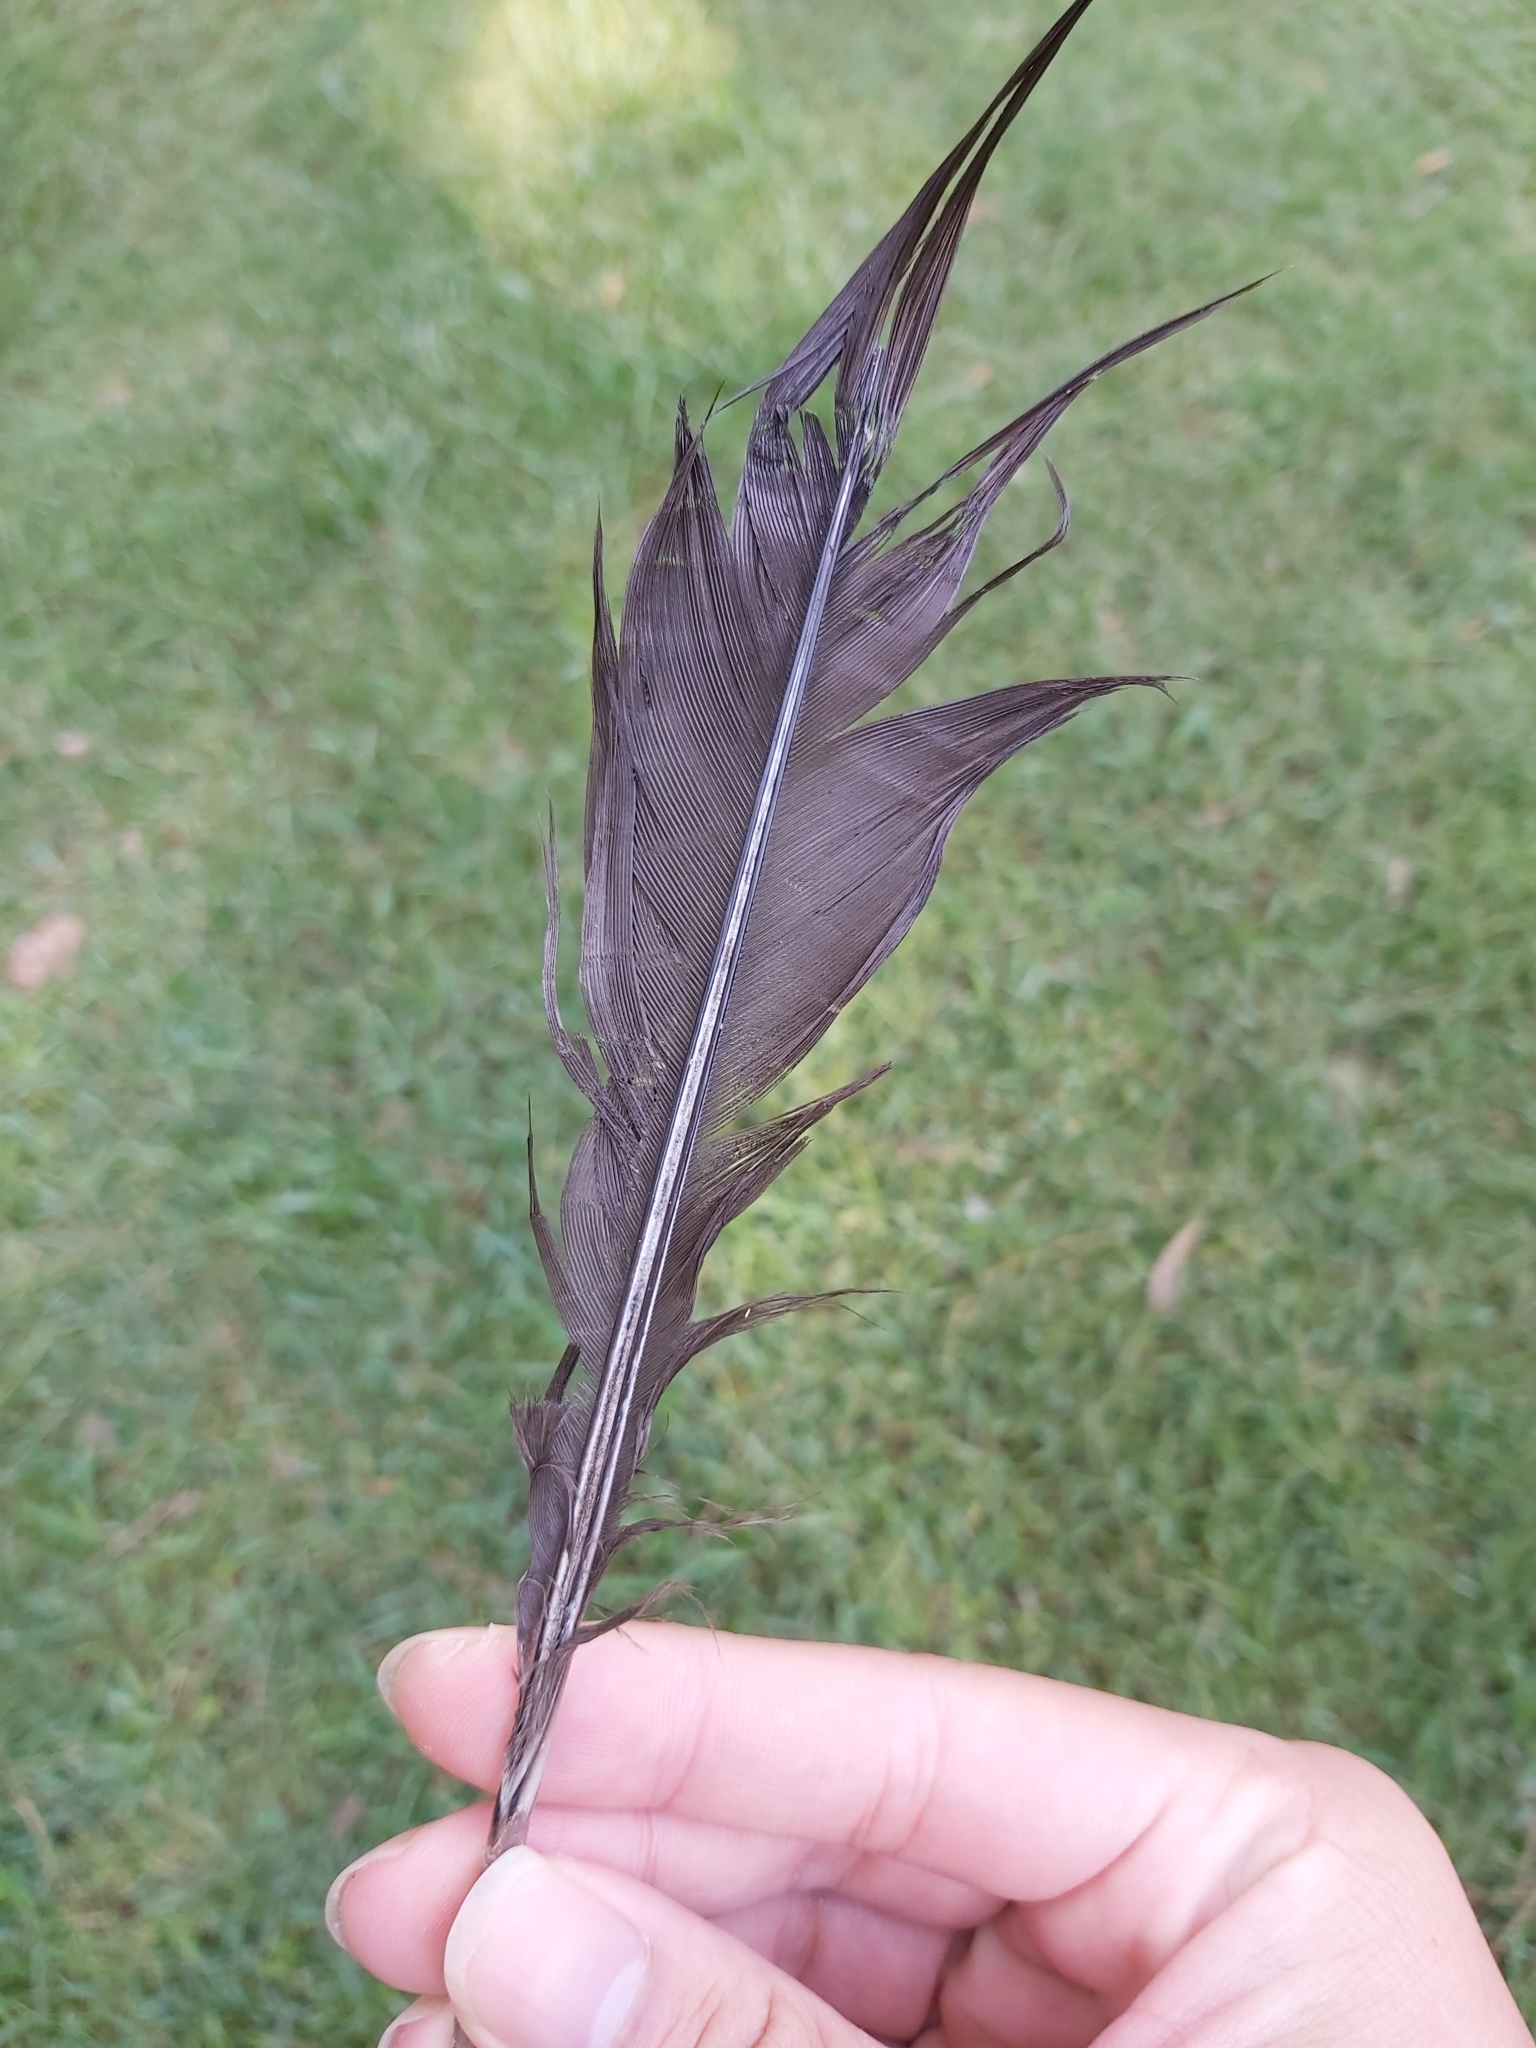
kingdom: Animalia
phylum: Chordata
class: Aves
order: Galliformes
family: Megapodiidae
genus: Alectura
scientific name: Alectura lathami
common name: Australian brushturkey
